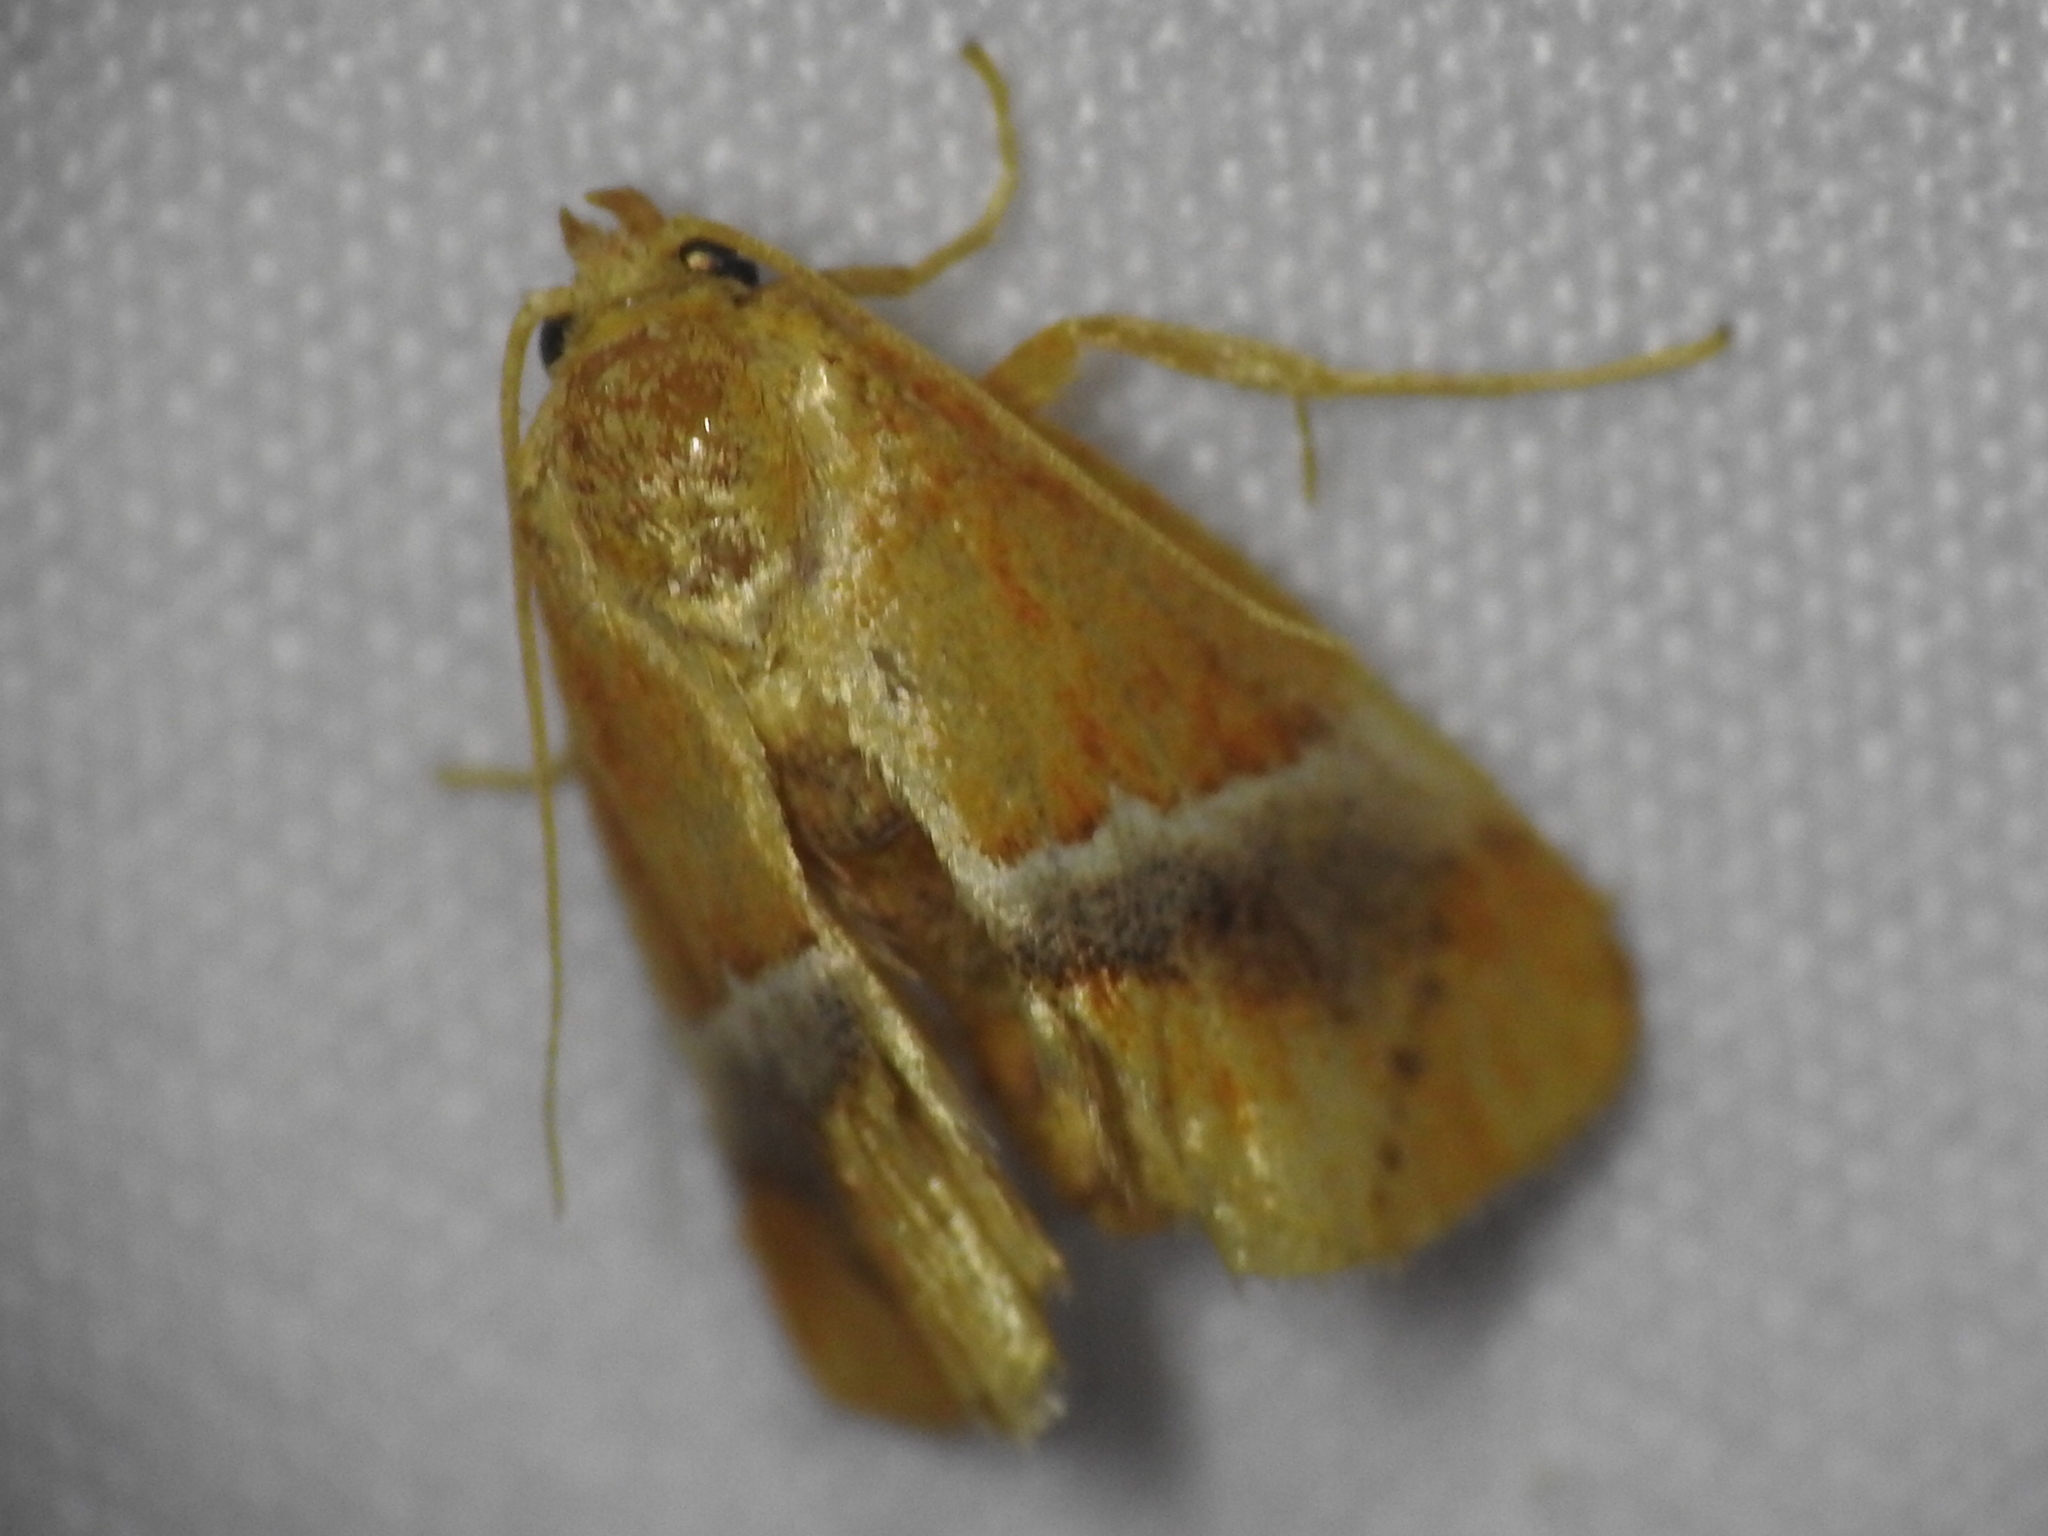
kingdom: Animalia
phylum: Arthropoda
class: Insecta
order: Lepidoptera
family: Limacodidae
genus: Lithacodes
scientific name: Lithacodes fasciola
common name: Yellow-shouldered slug moth
